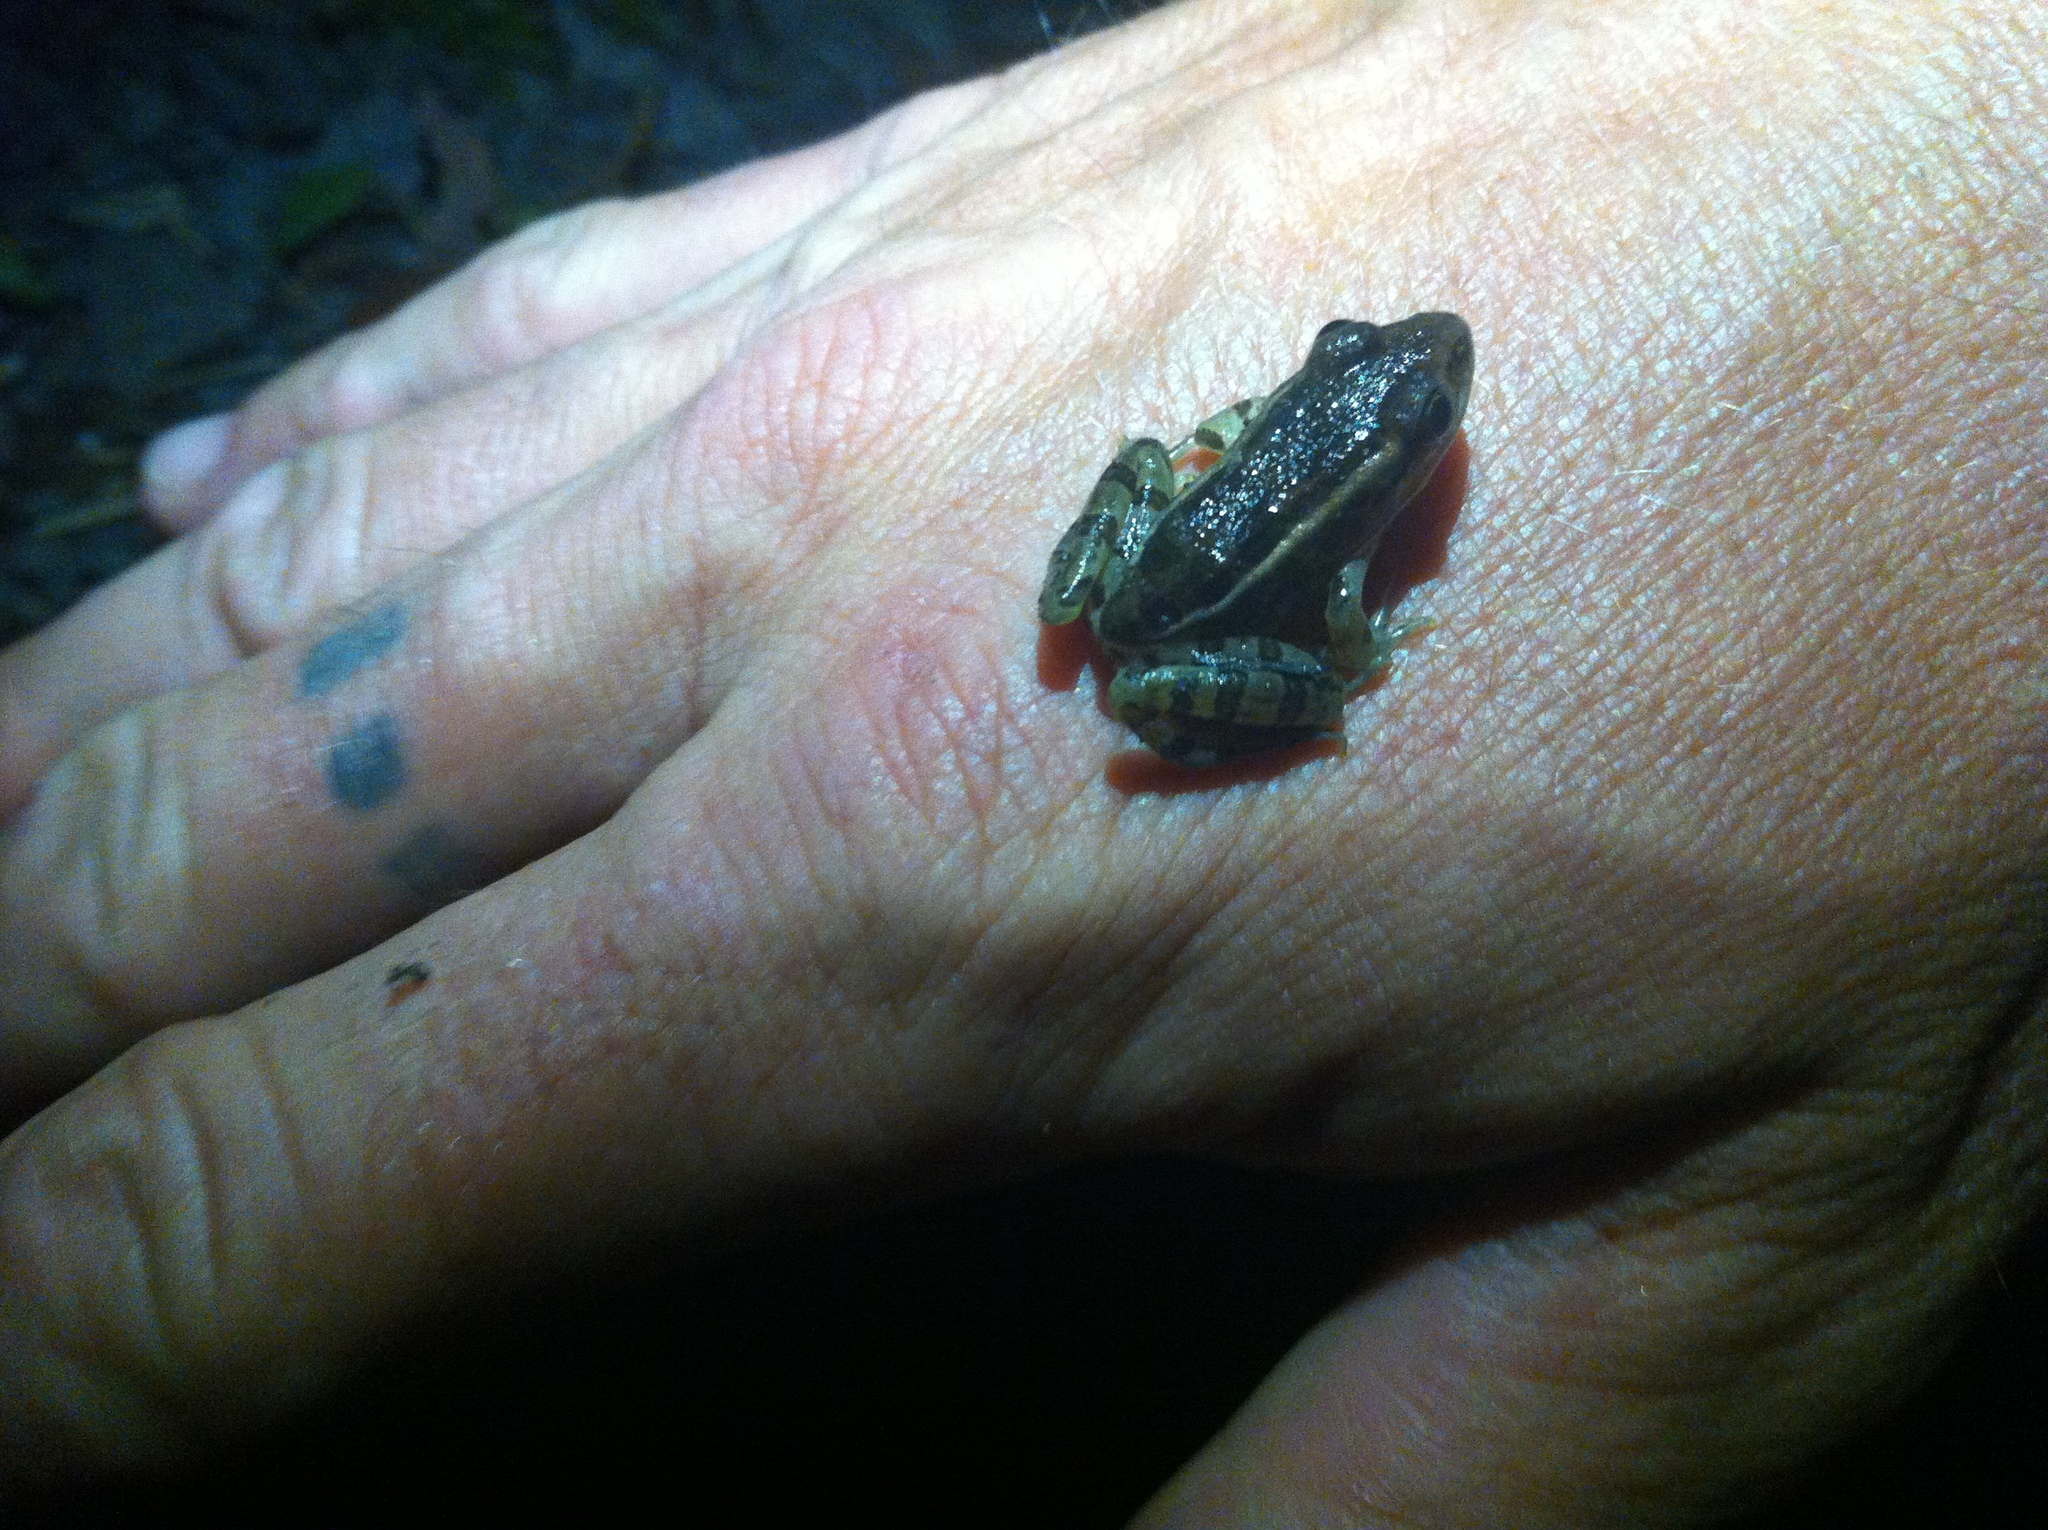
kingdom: Animalia
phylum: Chordata
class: Amphibia
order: Anura
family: Ranidae
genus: Lithobates
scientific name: Lithobates palustris
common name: Pickerel frog
